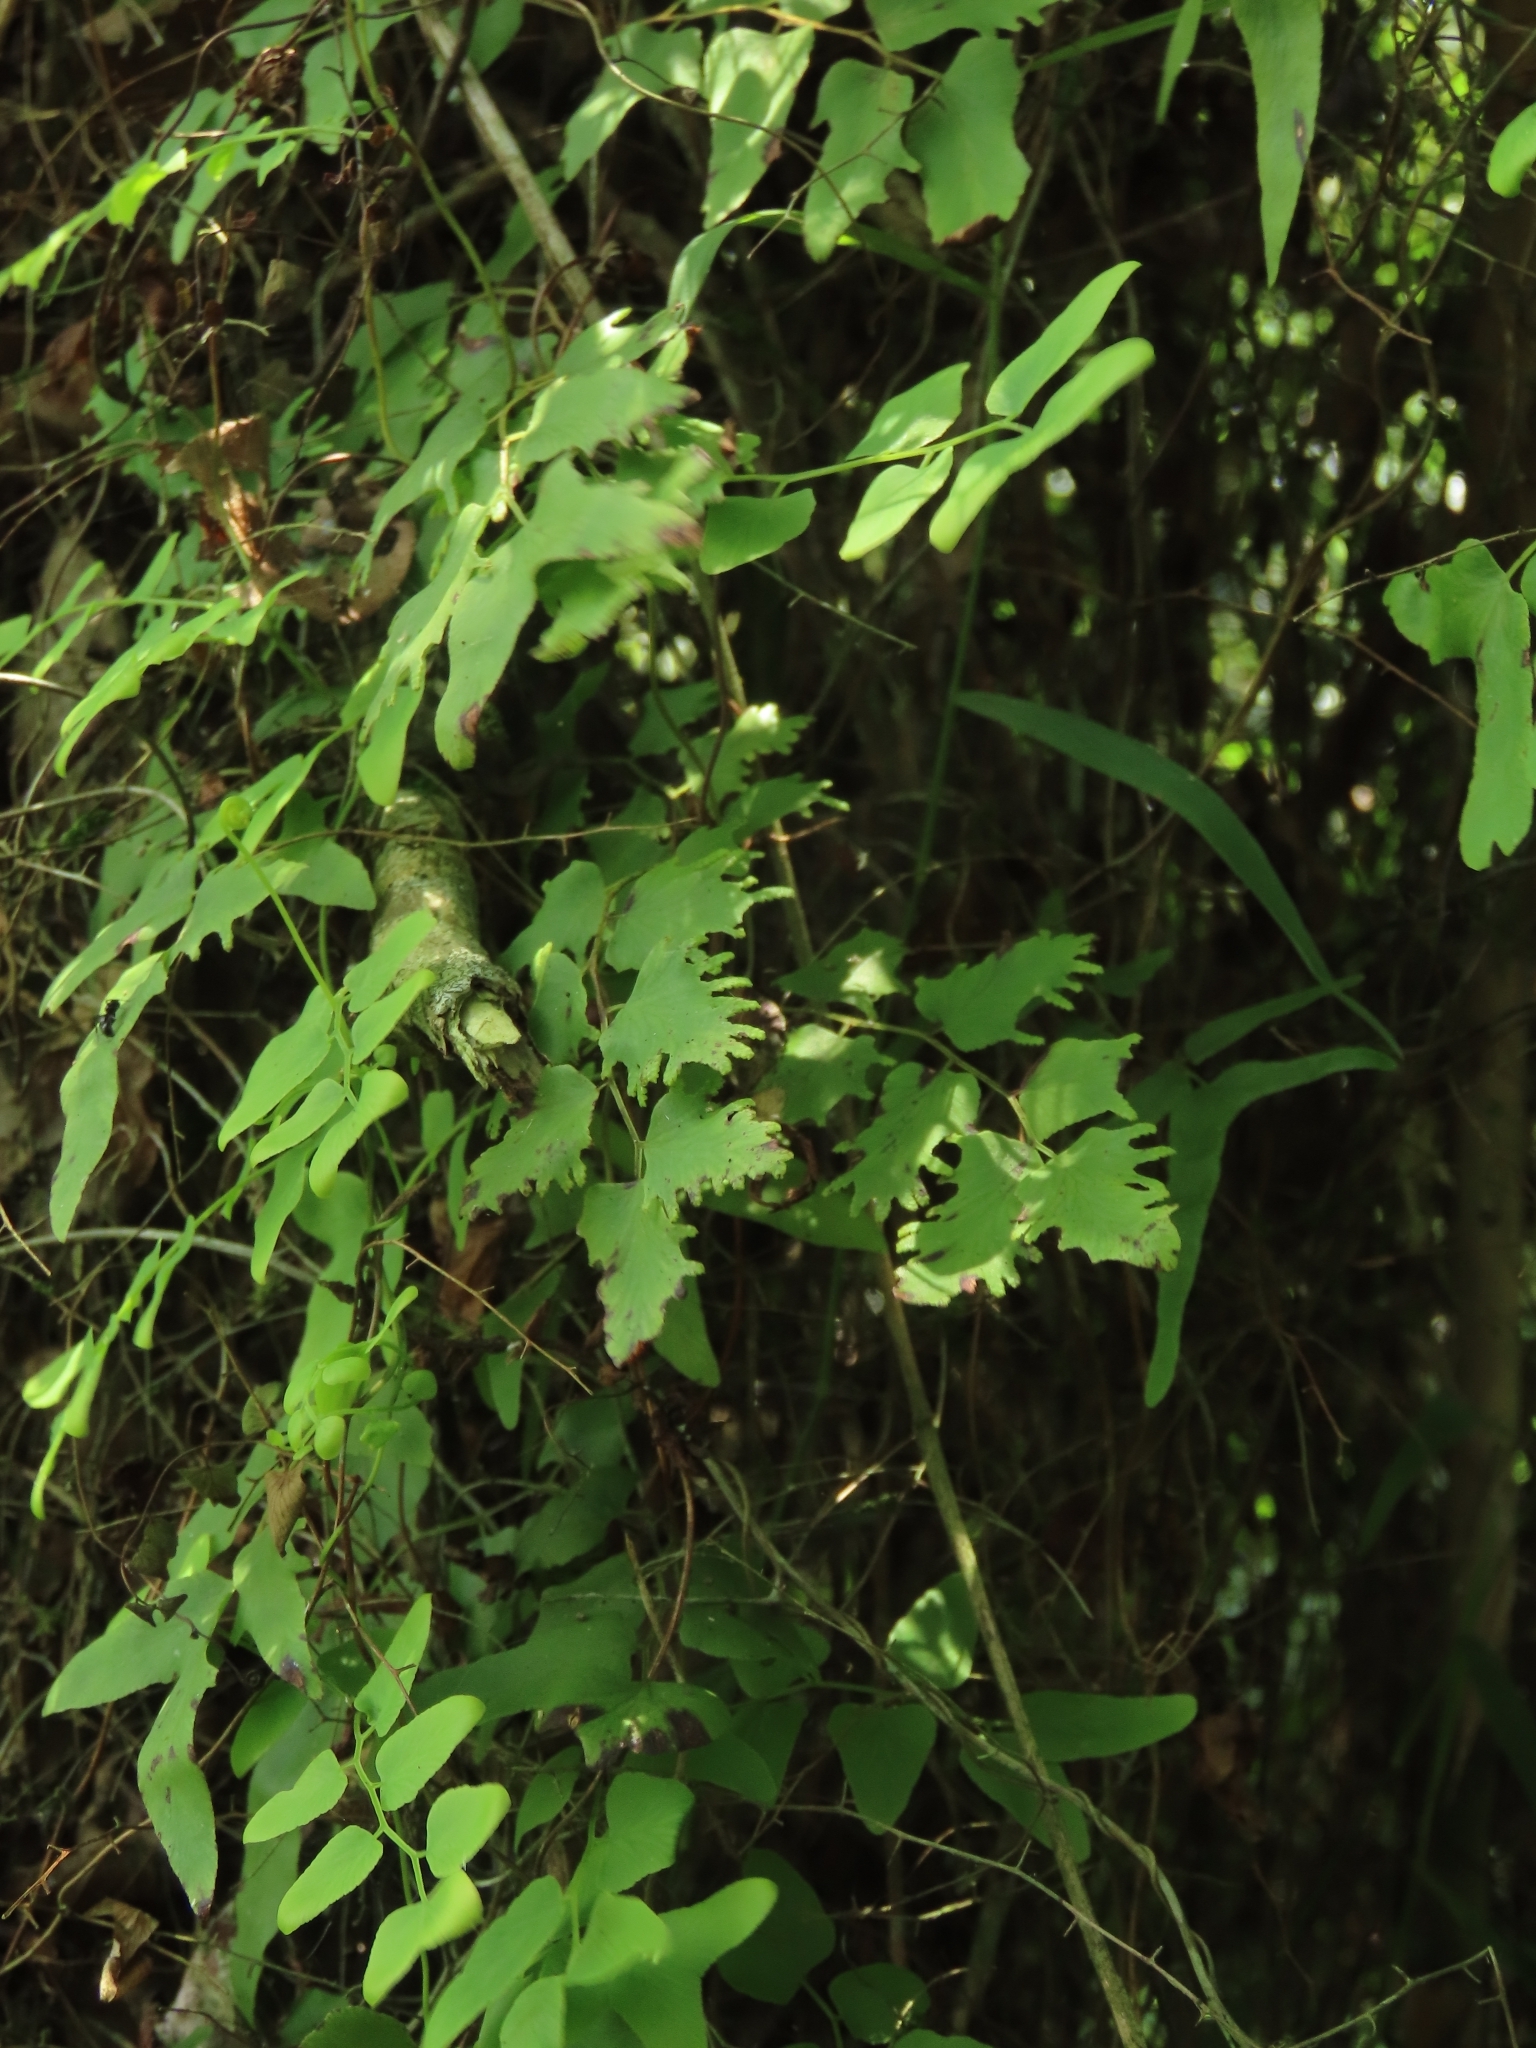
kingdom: Plantae
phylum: Tracheophyta
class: Polypodiopsida
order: Schizaeales
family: Lygodiaceae
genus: Lygodium
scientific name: Lygodium microphyllum
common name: Small-leaf climbing fern
